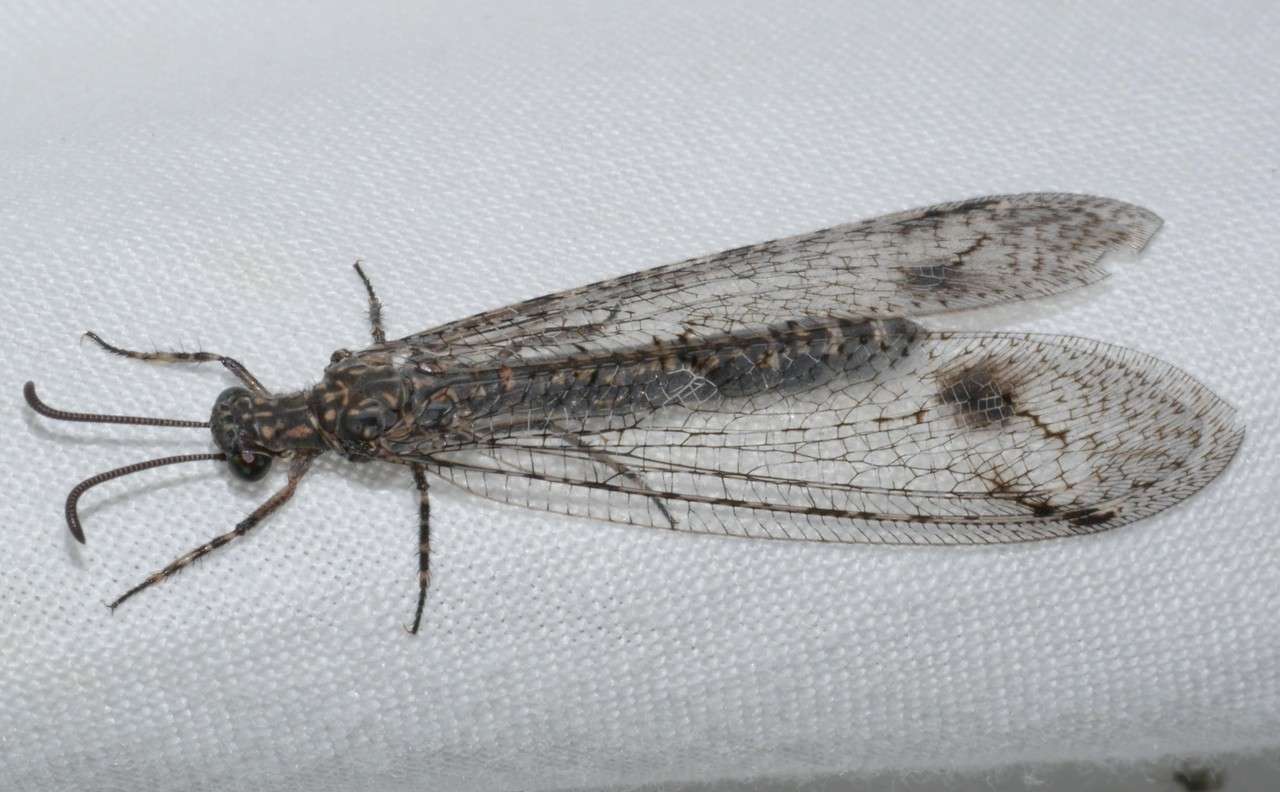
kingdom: Animalia
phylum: Arthropoda
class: Insecta
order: Neuroptera
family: Myrmeleontidae
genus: Austrogymnocnemia
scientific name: Austrogymnocnemia bipunctata
